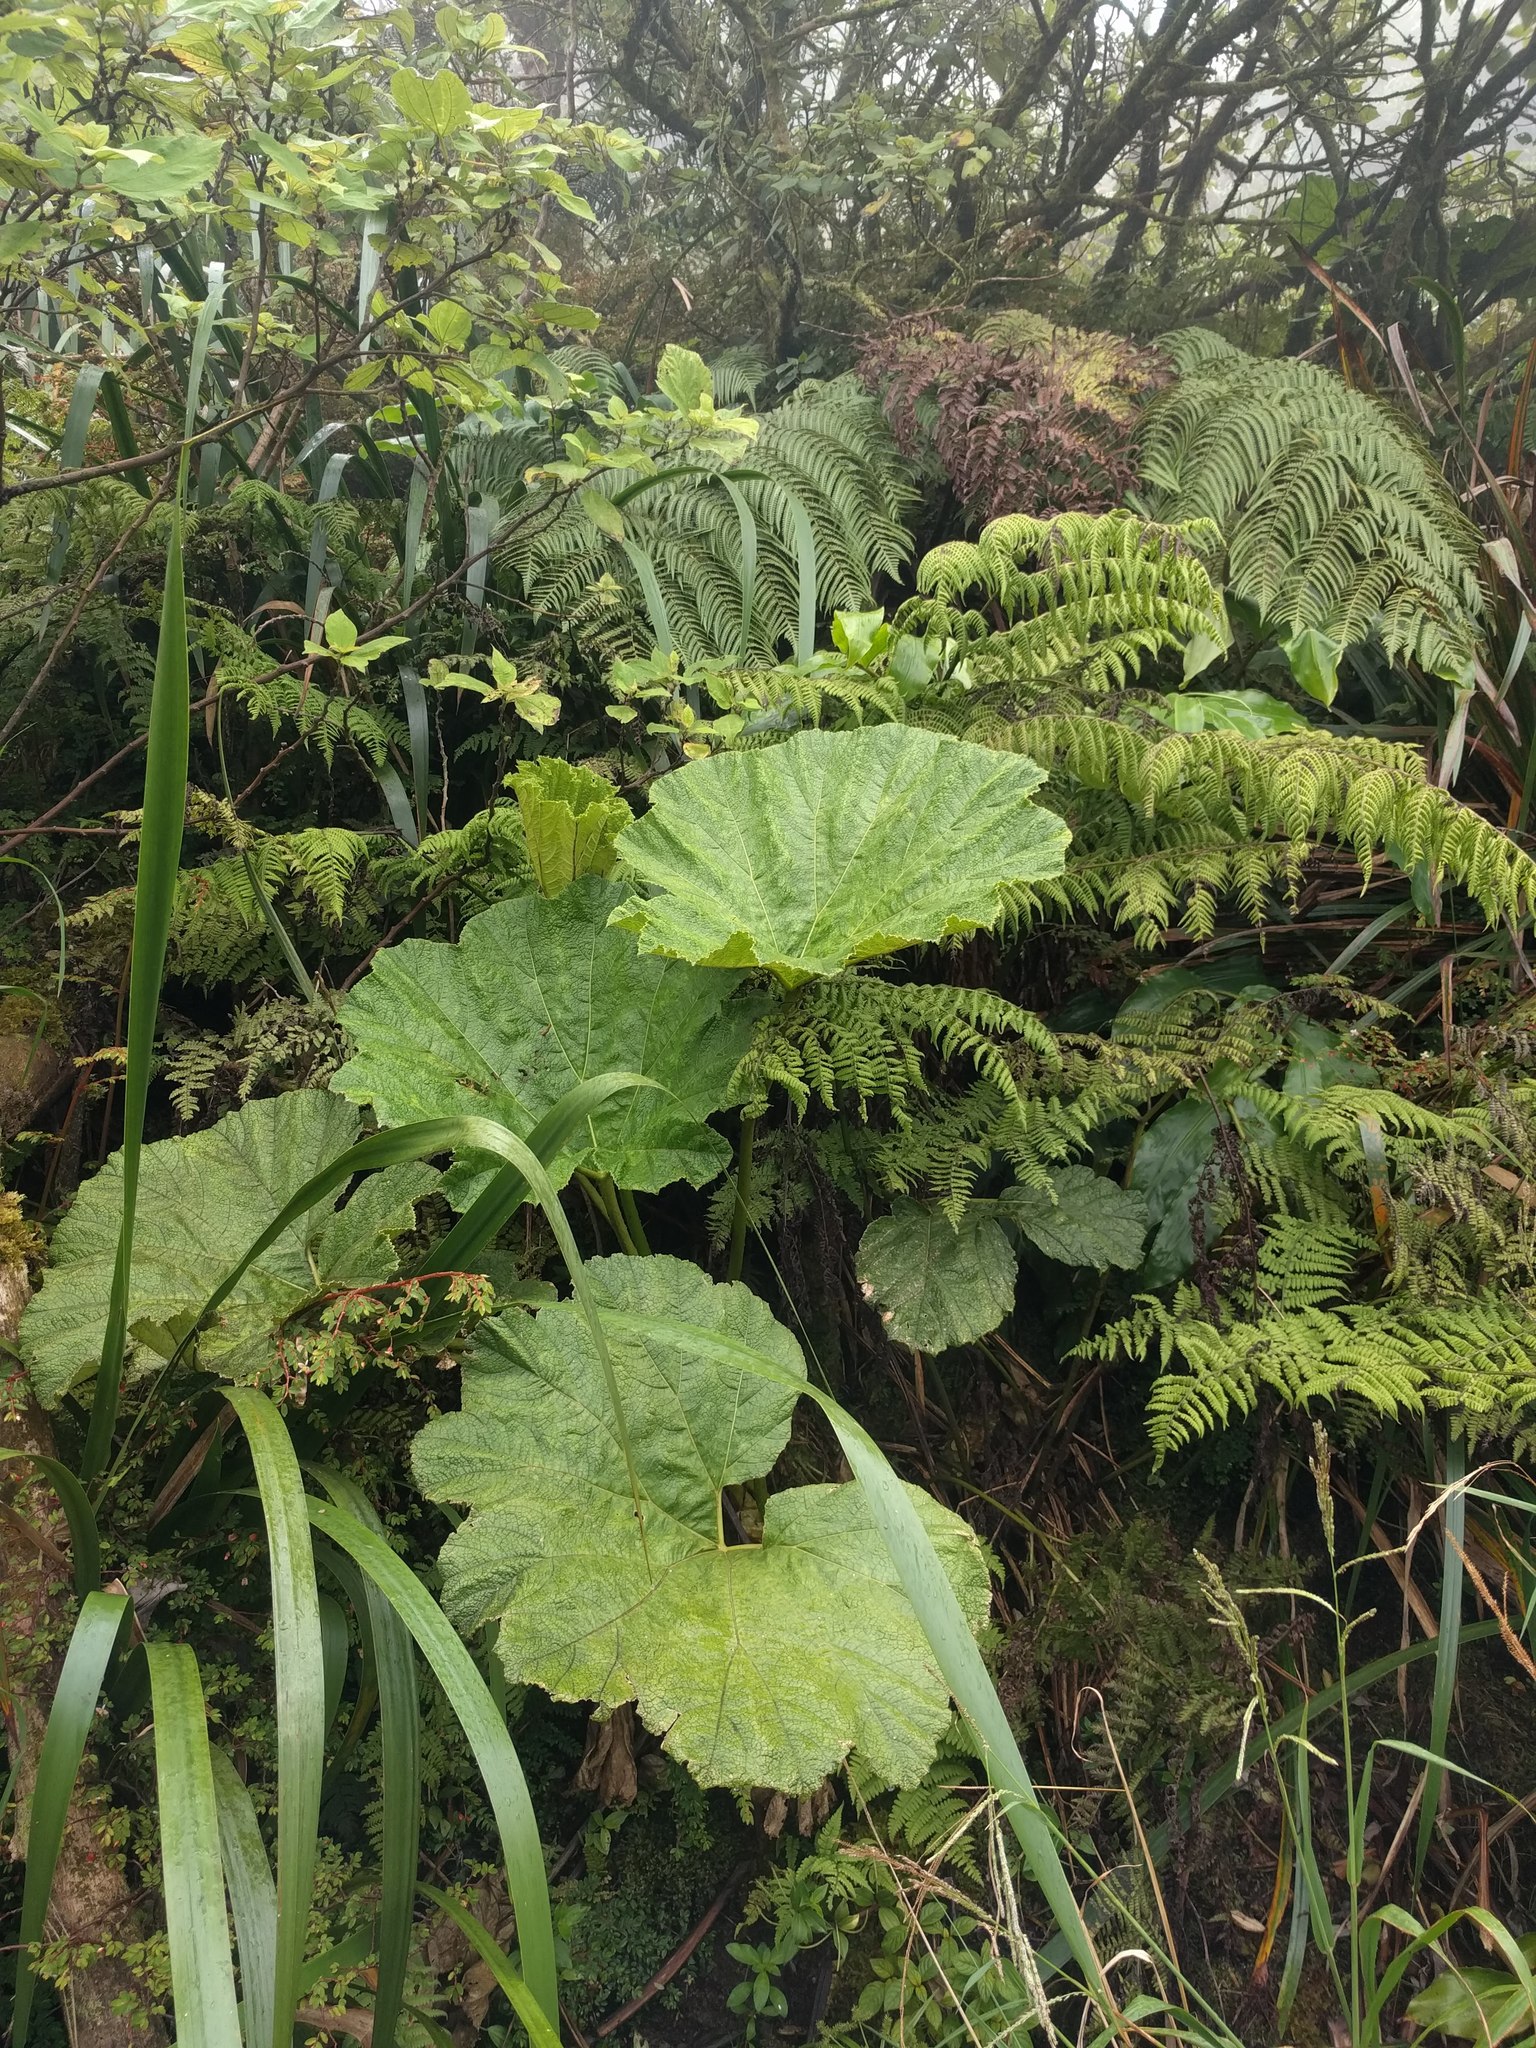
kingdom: Plantae
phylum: Tracheophyta
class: Magnoliopsida
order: Gunnerales
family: Gunneraceae
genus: Gunnera
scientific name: Gunnera petaloidea
